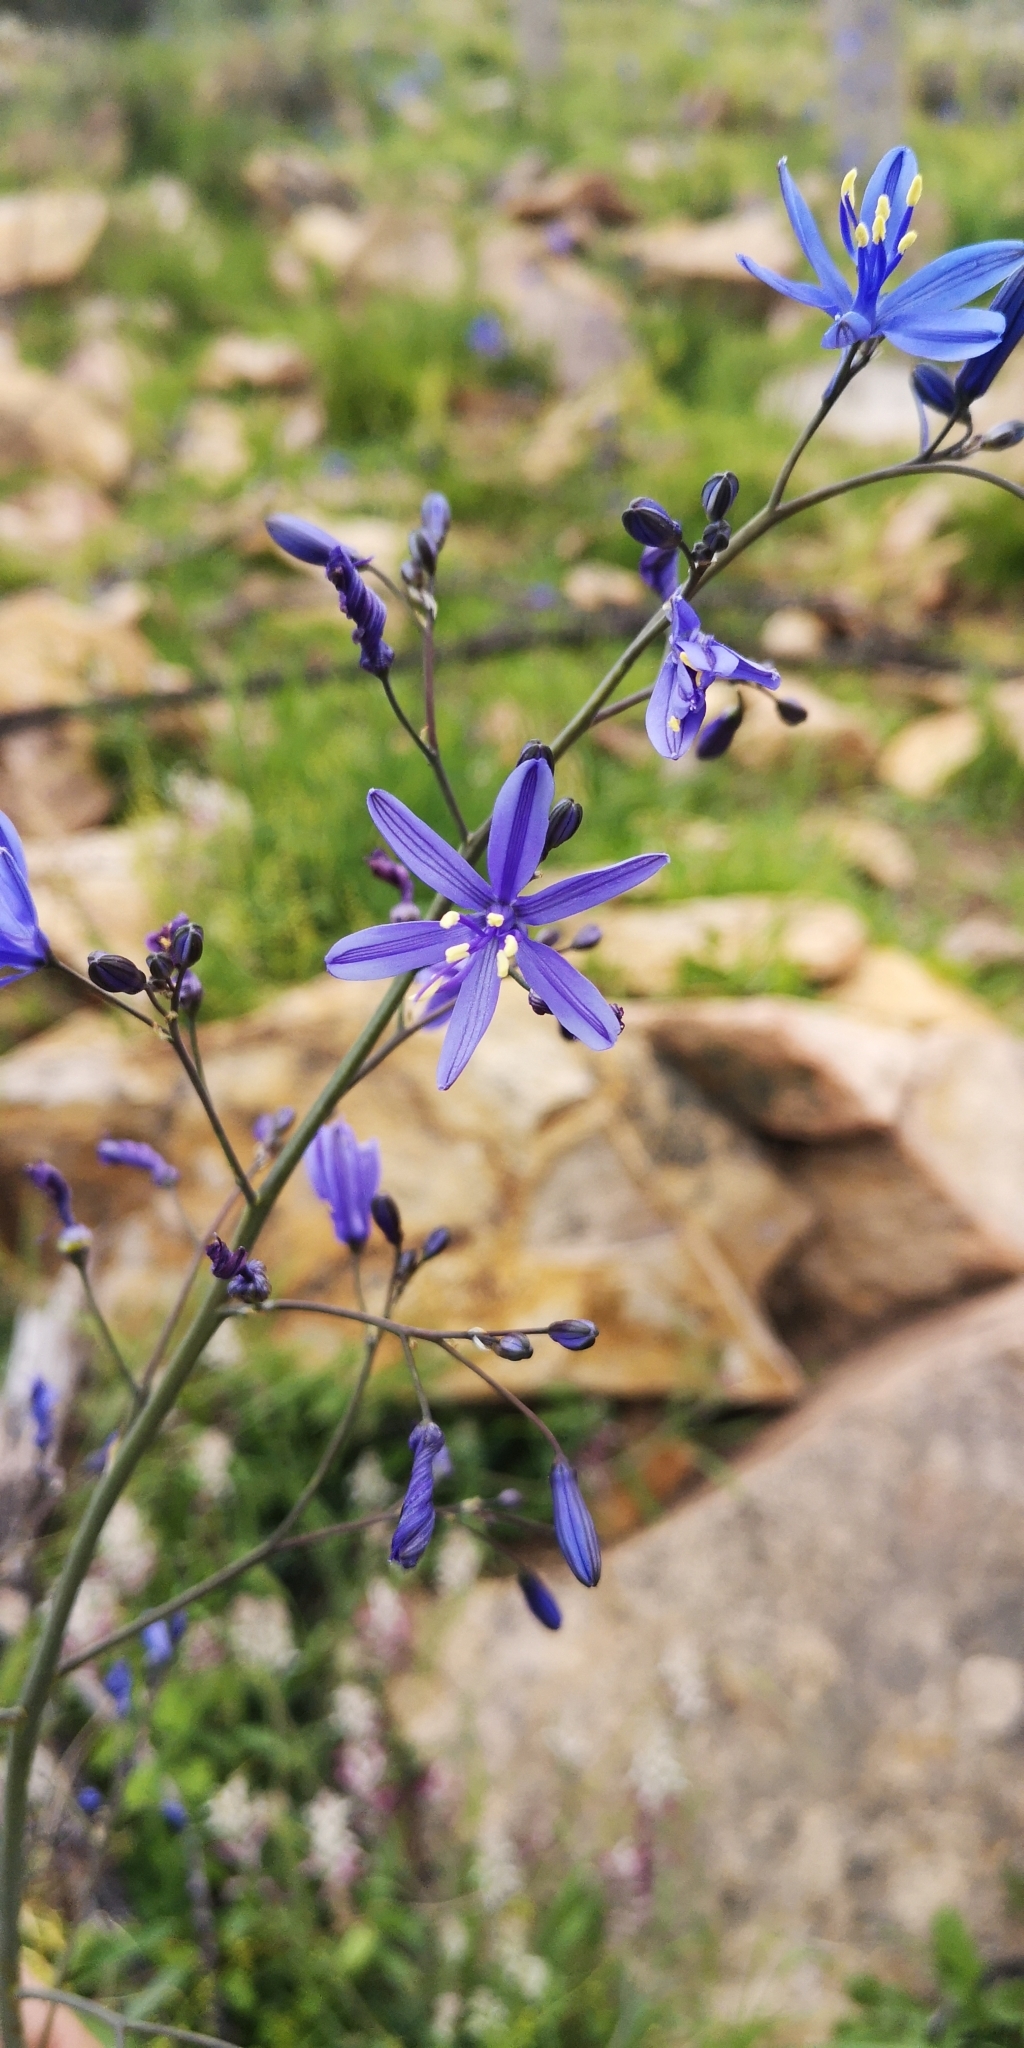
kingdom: Plantae
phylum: Tracheophyta
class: Liliopsida
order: Asparagales
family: Asphodelaceae
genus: Pasithea
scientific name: Pasithea caerulea
